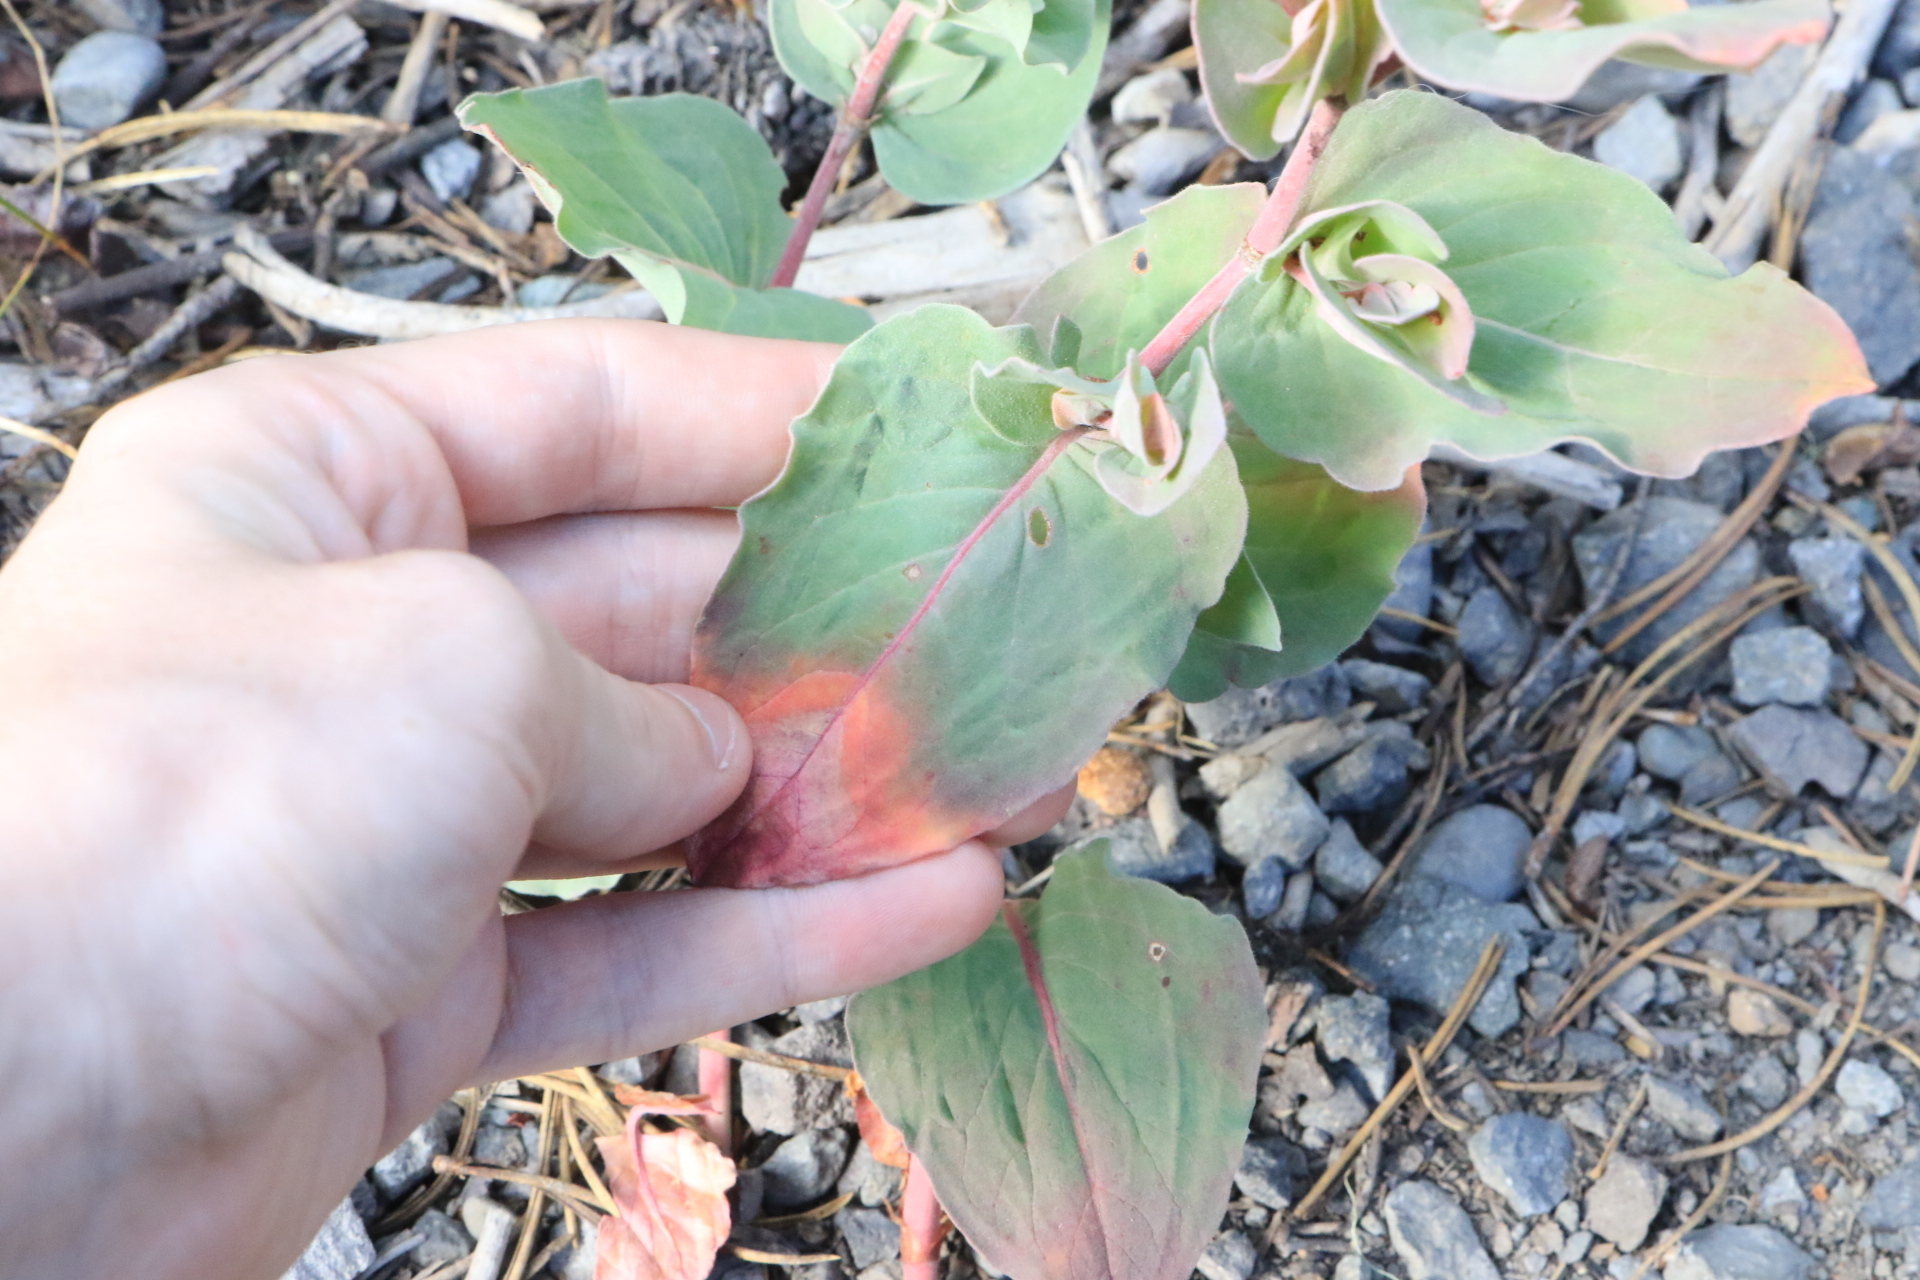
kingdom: Plantae
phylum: Tracheophyta
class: Magnoliopsida
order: Caryophyllales
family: Polygonaceae
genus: Koenigia
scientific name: Koenigia davisiae
